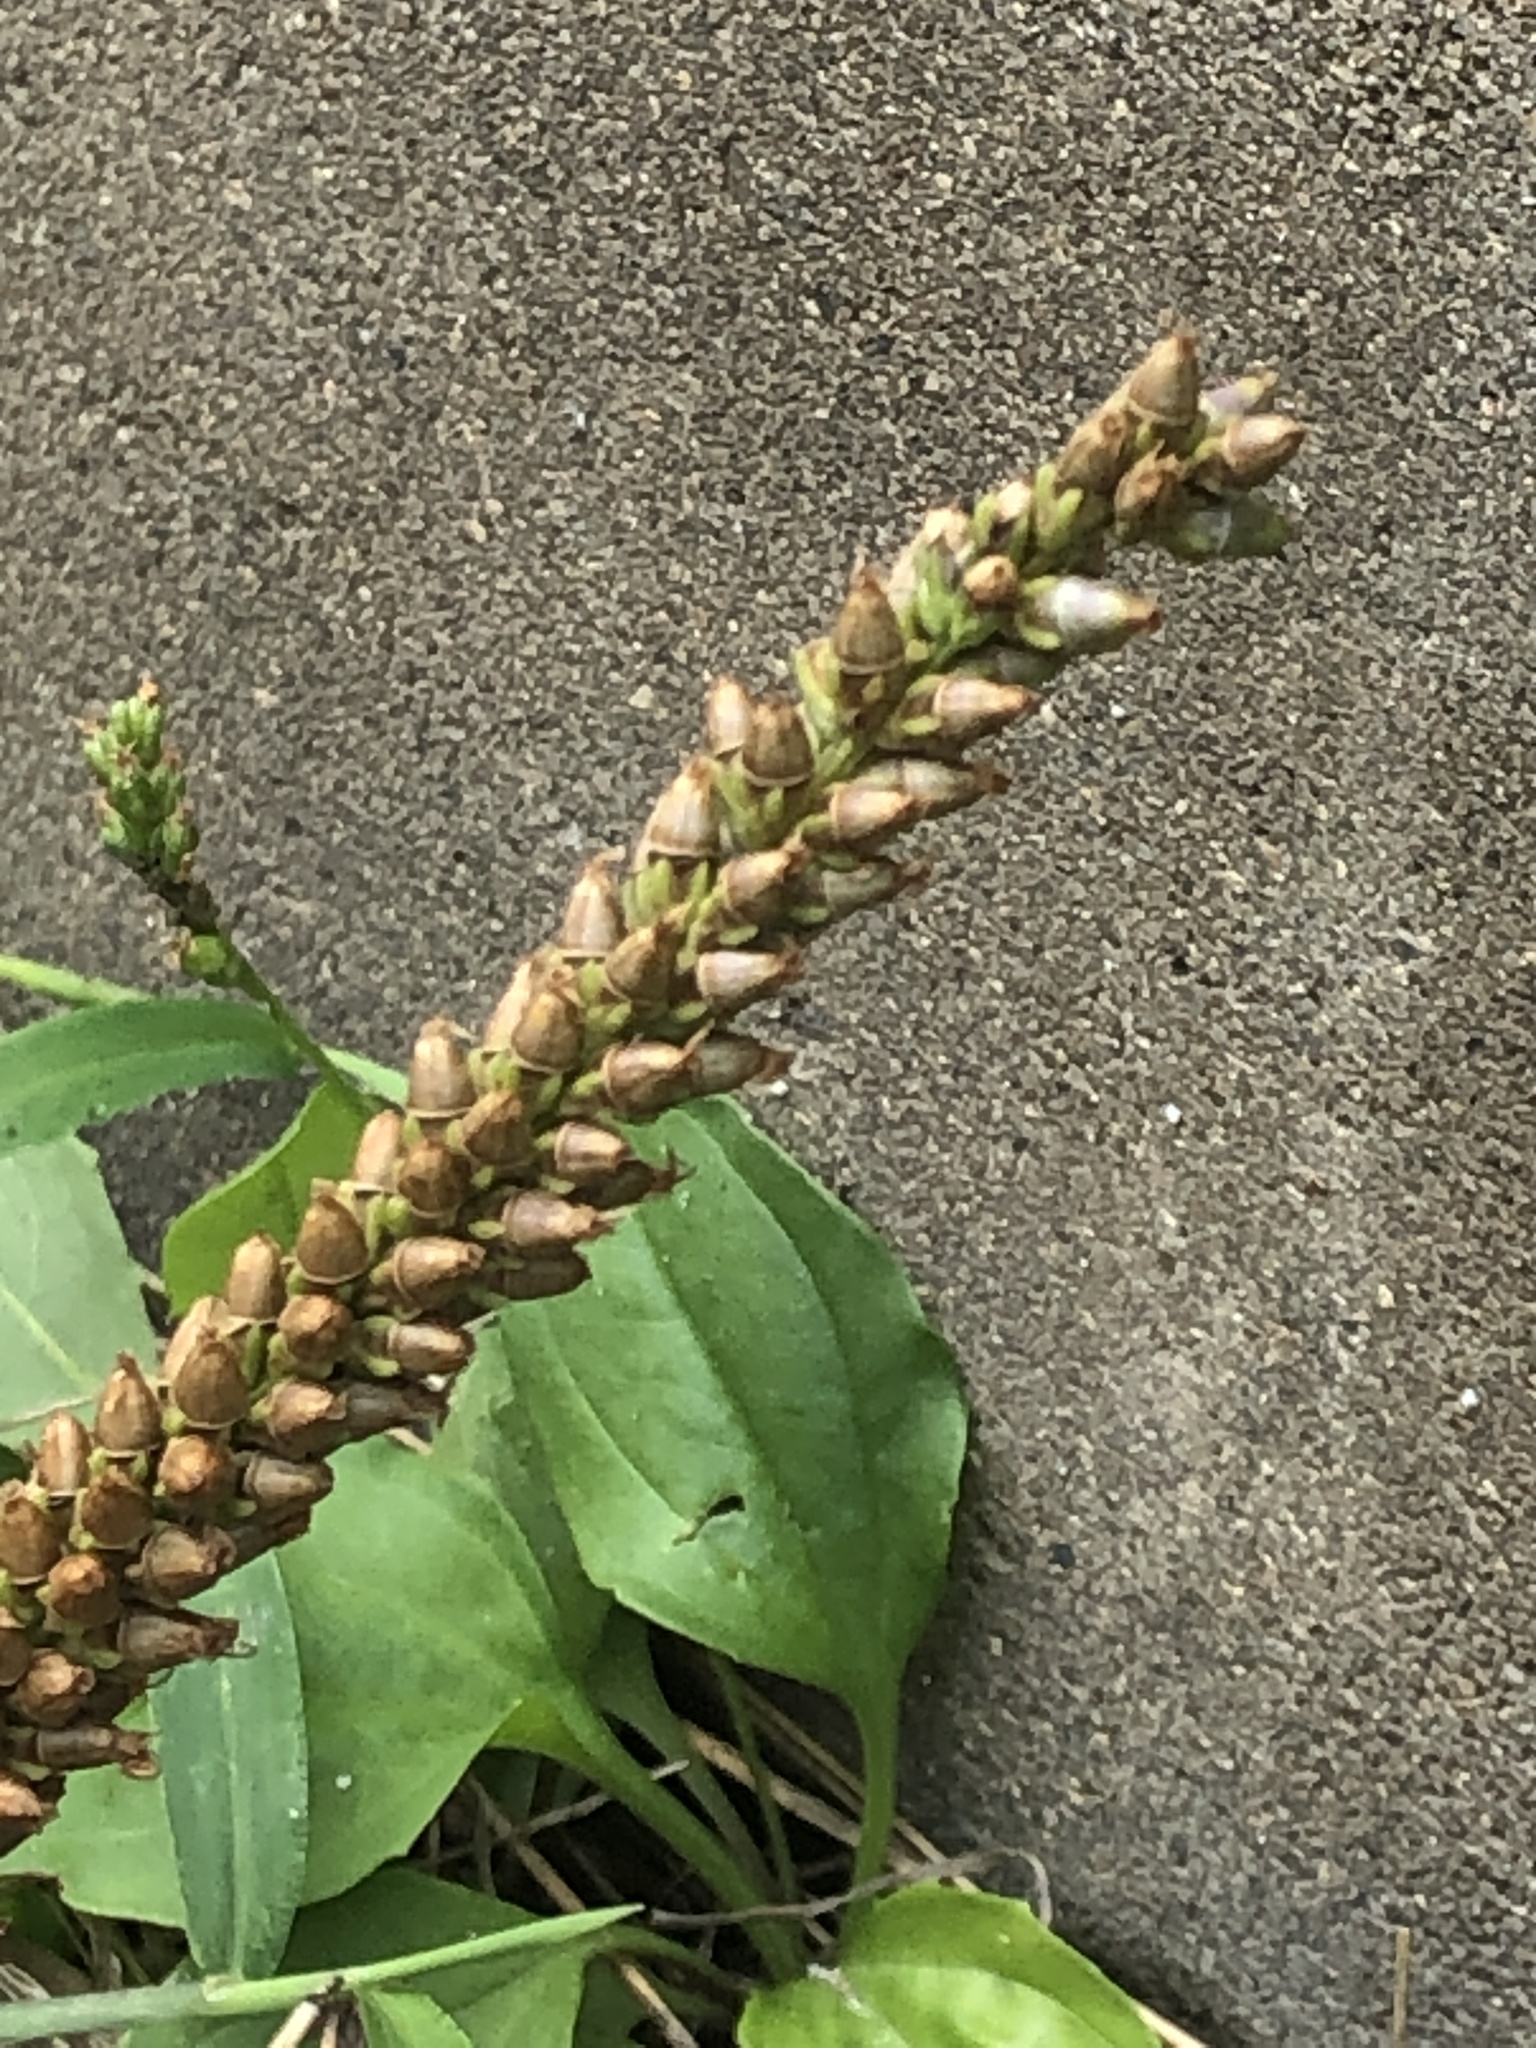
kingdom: Plantae
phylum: Tracheophyta
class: Magnoliopsida
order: Lamiales
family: Plantaginaceae
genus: Plantago
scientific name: Plantago major
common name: Common plantain
